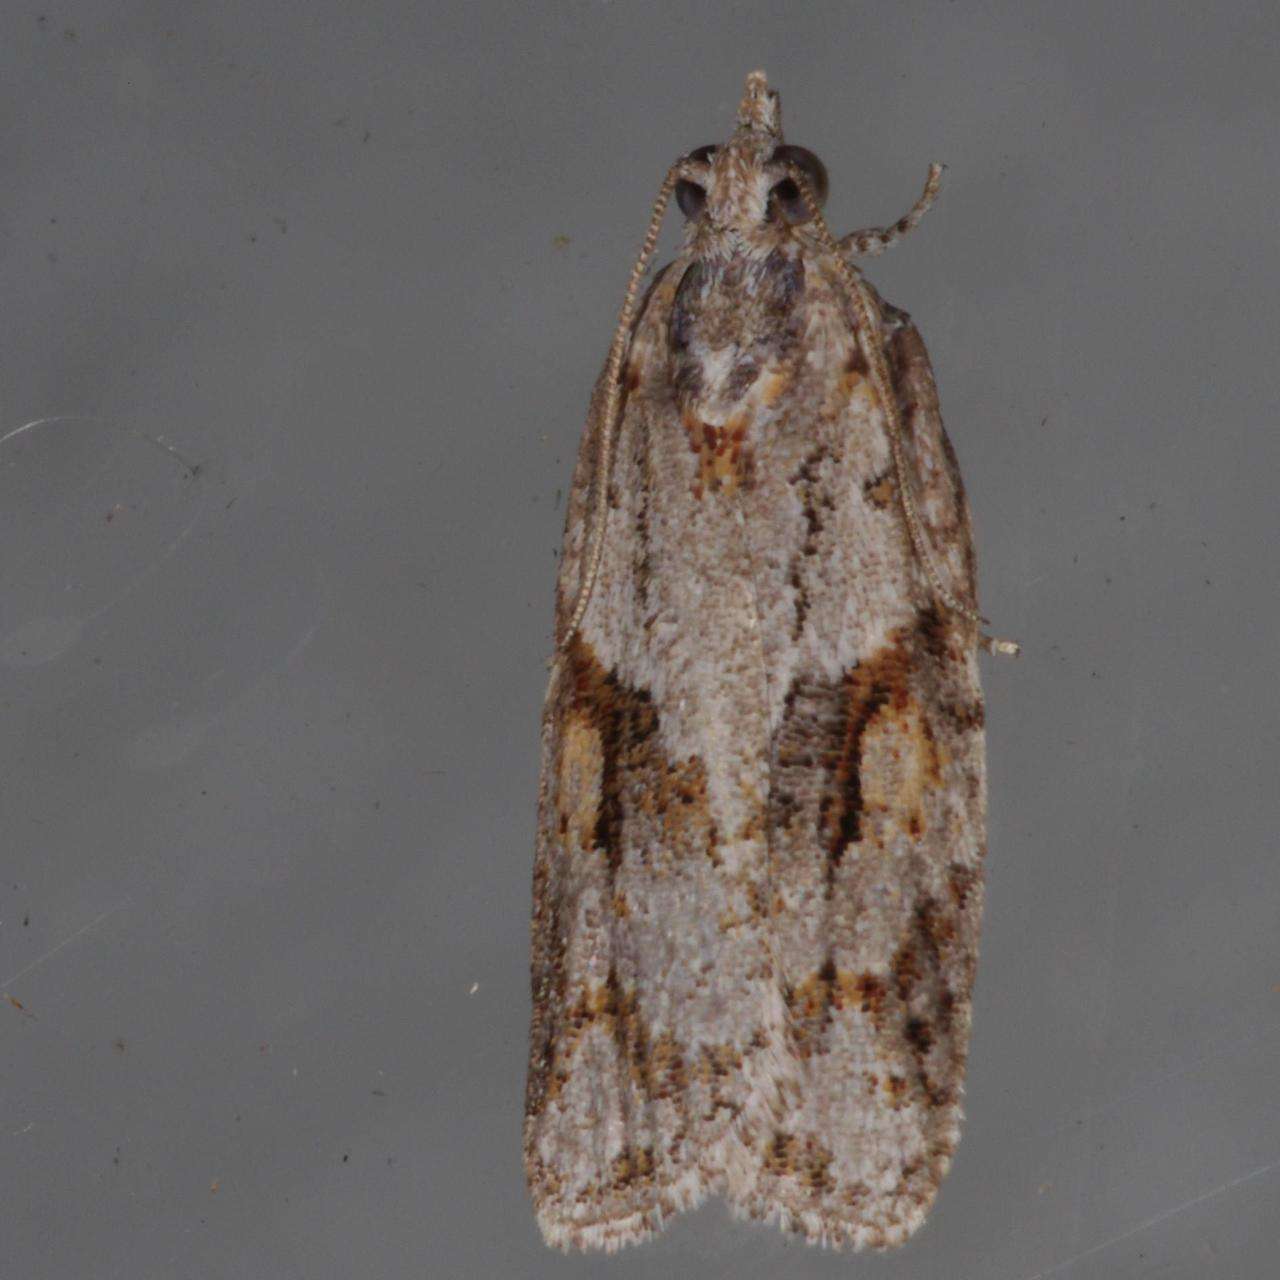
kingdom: Animalia
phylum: Arthropoda
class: Insecta
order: Lepidoptera
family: Tortricidae
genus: Acropolitis
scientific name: Acropolitis rudisana
